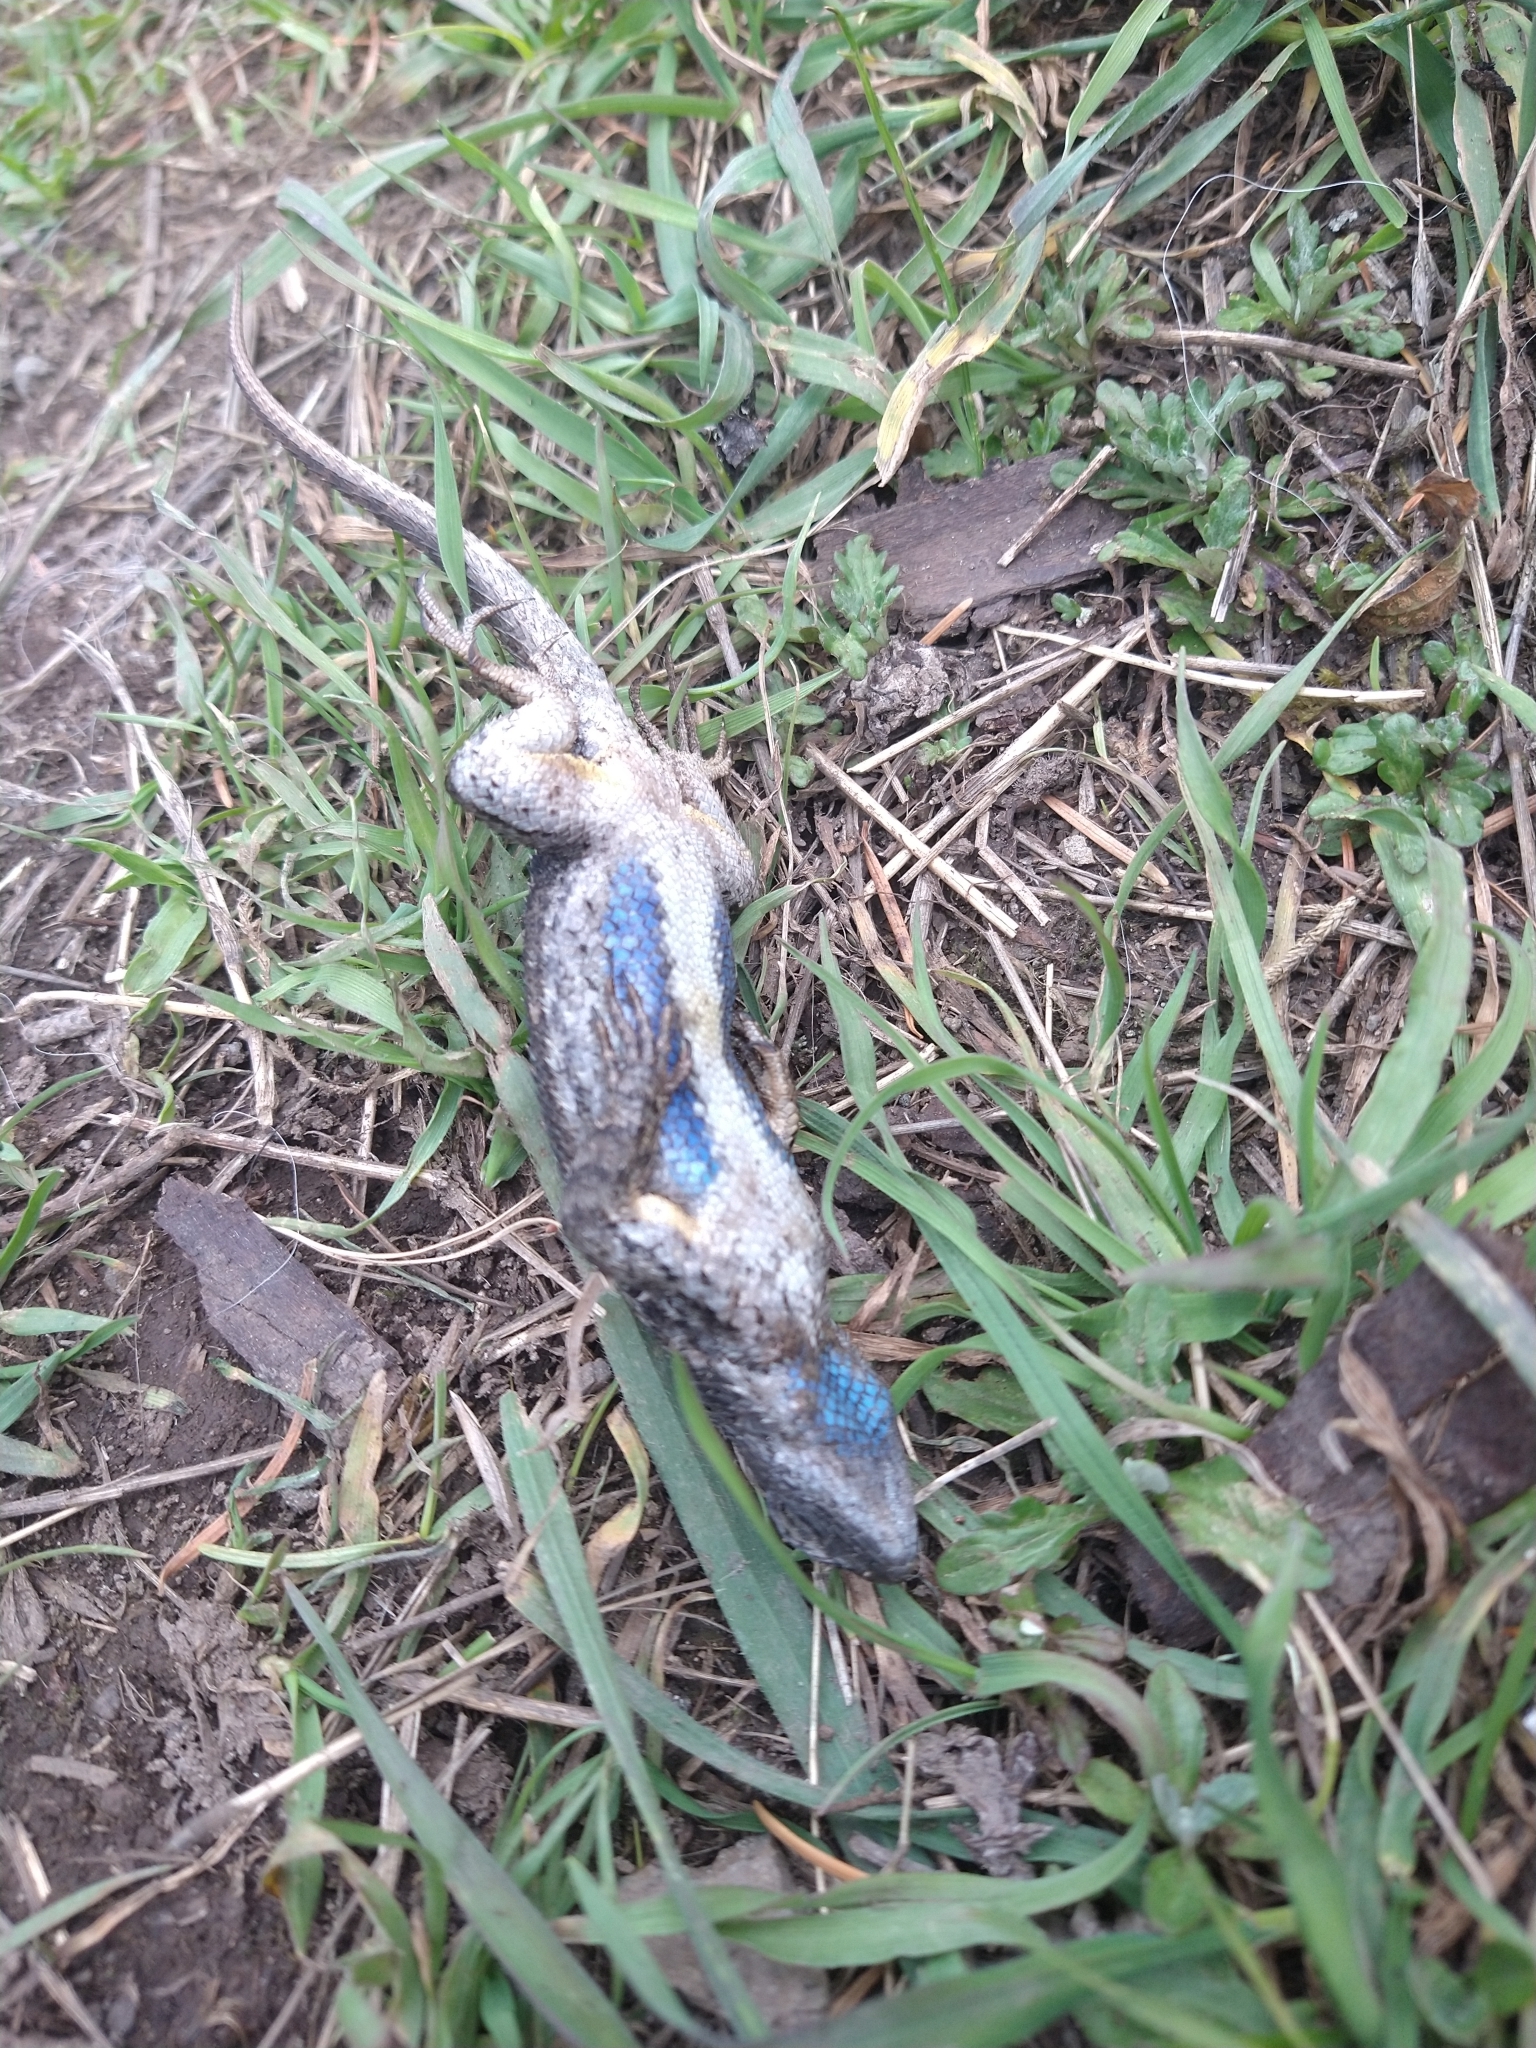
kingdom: Animalia
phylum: Chordata
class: Squamata
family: Phrynosomatidae
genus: Sceloporus
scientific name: Sceloporus occidentalis
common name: Western fence lizard
